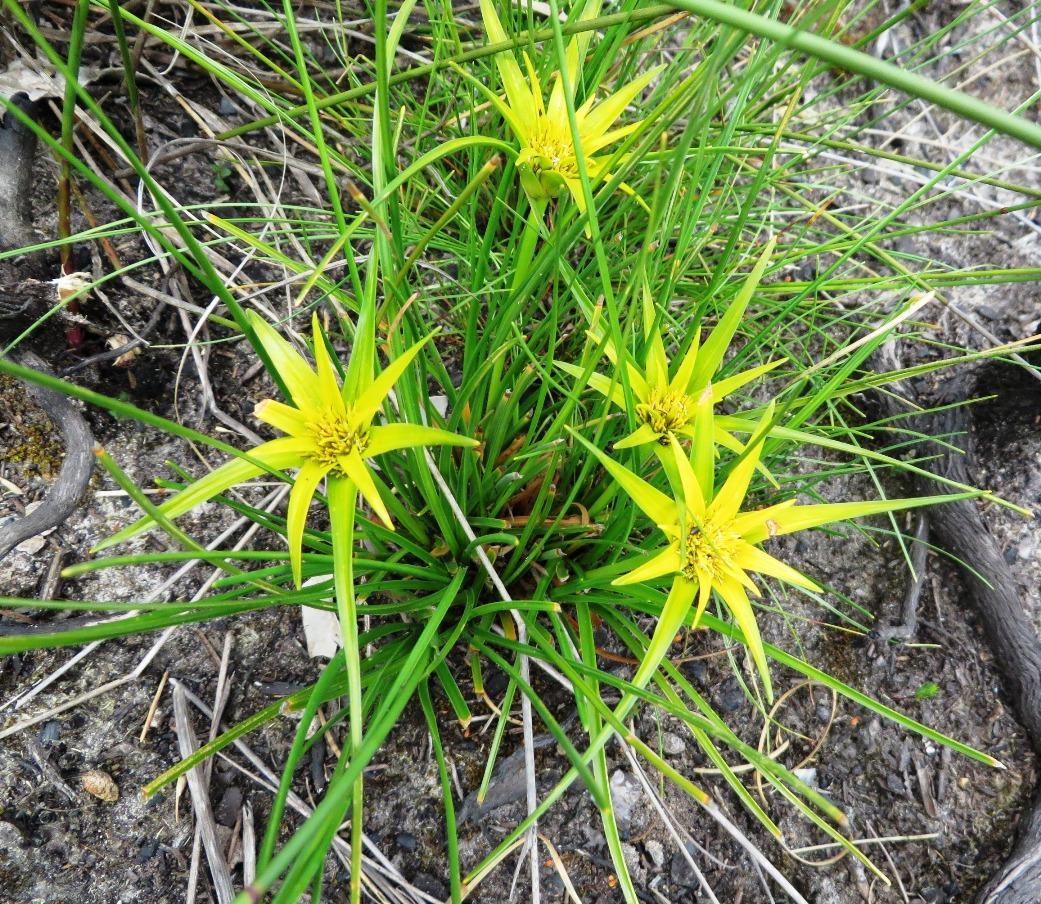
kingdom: Plantae
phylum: Tracheophyta
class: Liliopsida
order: Poales
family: Cyperaceae
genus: Ficinia
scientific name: Ficinia radiata
